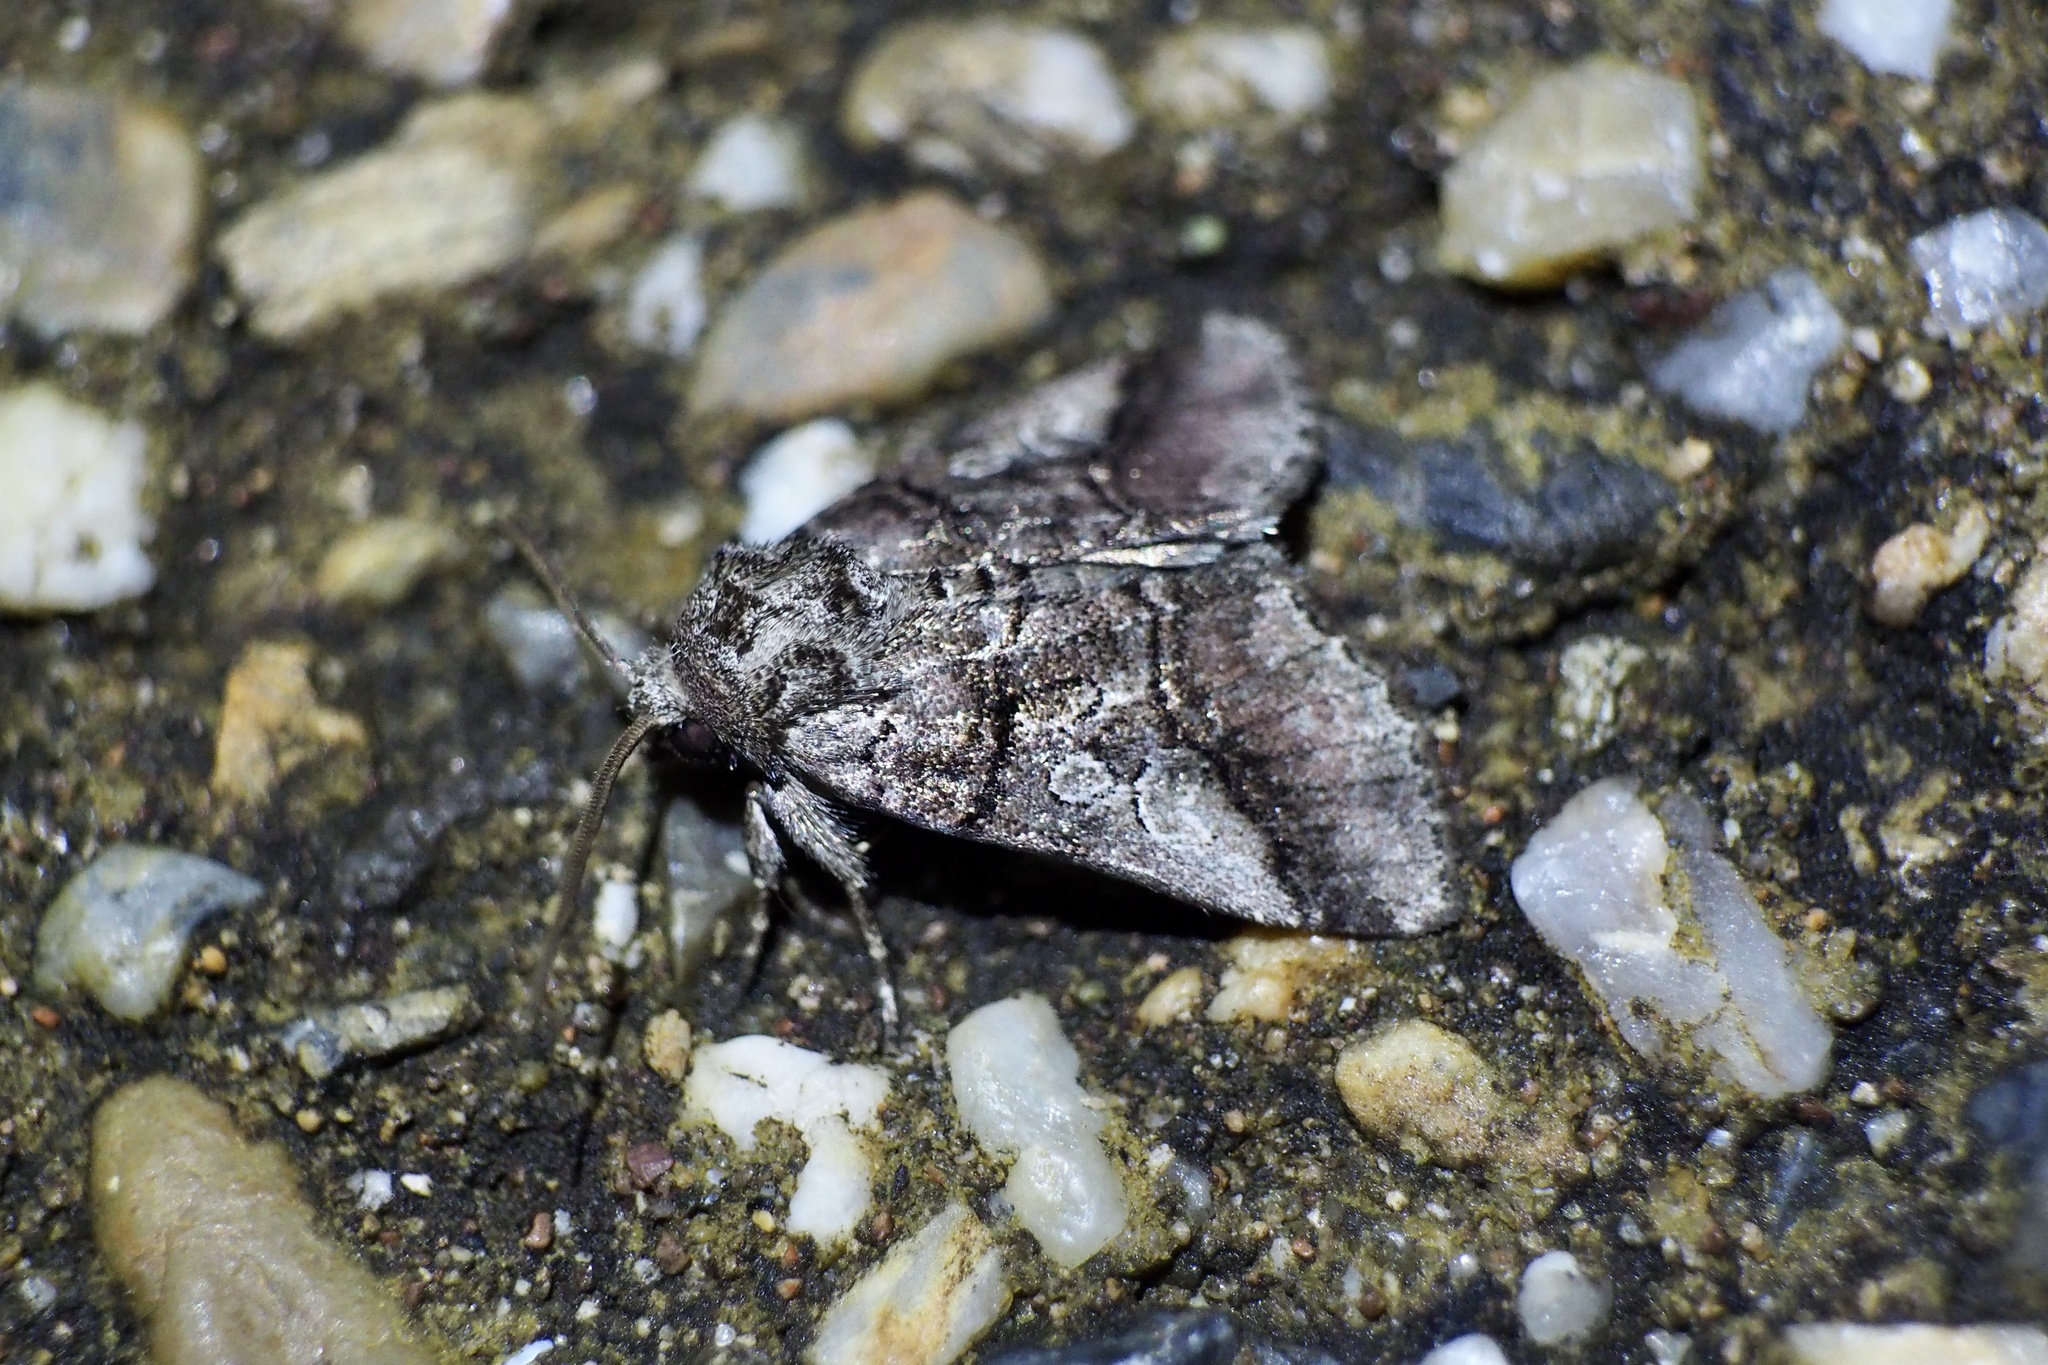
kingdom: Animalia
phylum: Arthropoda
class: Insecta
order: Lepidoptera
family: Noctuidae
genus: Protomiselia
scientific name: Protomiselia bilinea
